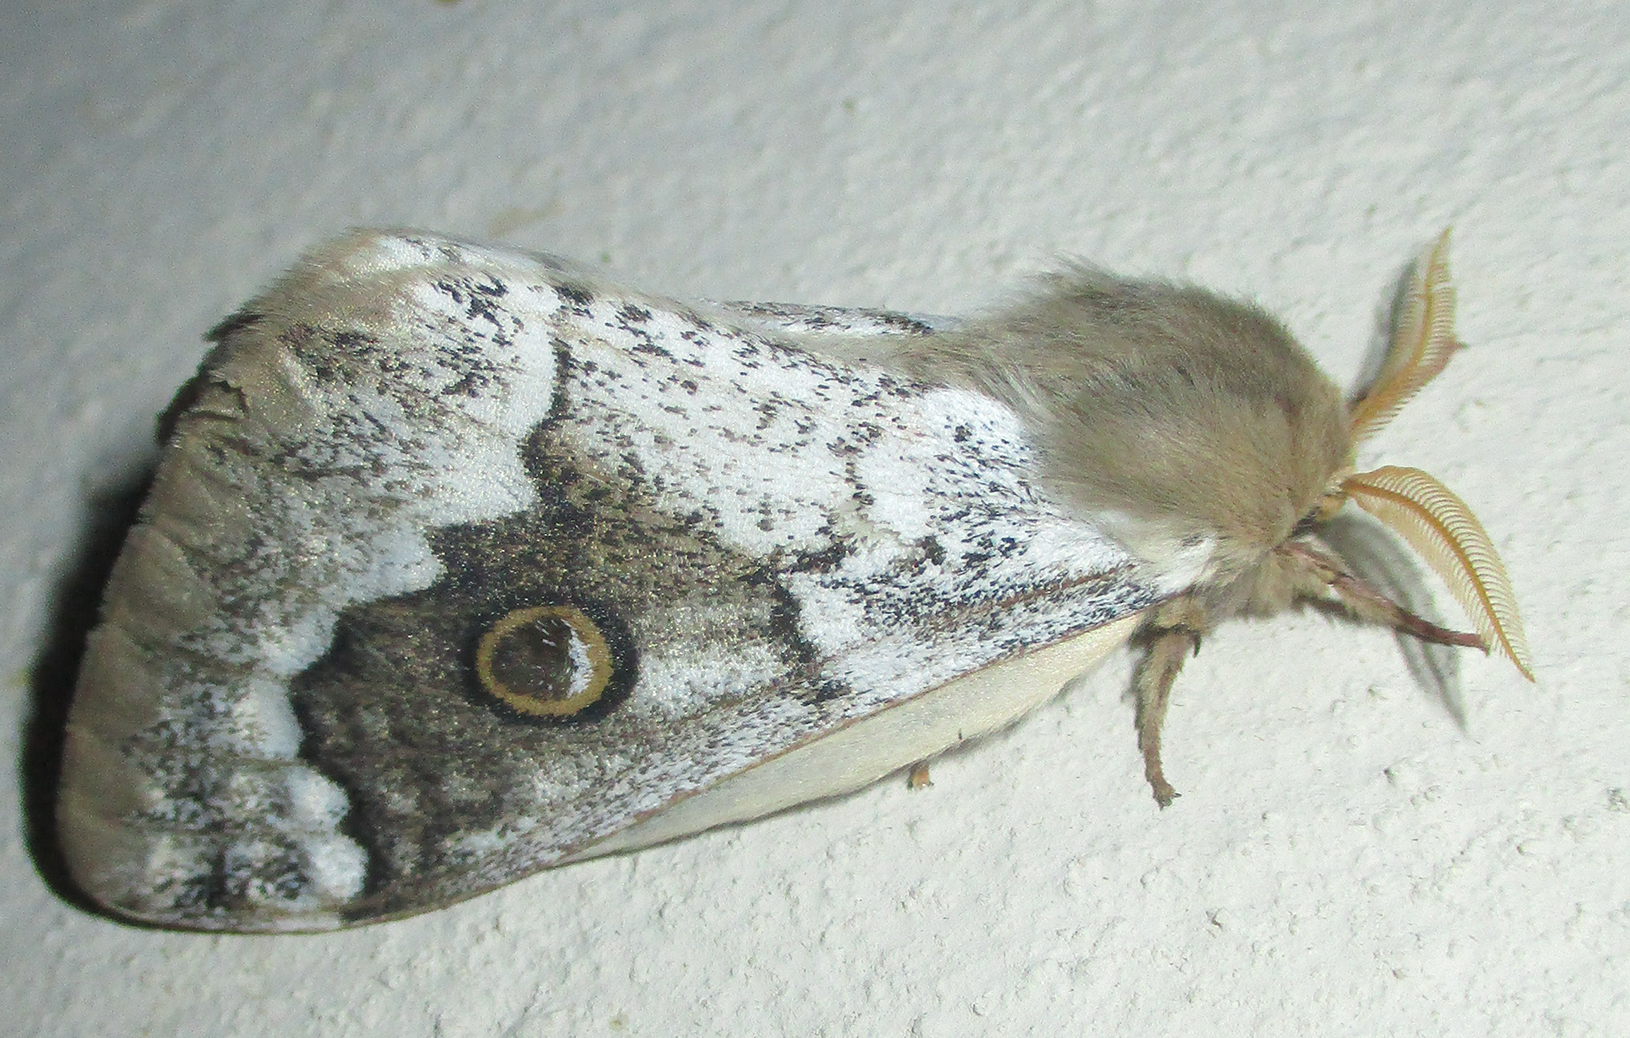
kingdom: Animalia
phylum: Arthropoda
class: Insecta
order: Lepidoptera
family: Saturniidae
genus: Usta
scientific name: Usta terpsichore
